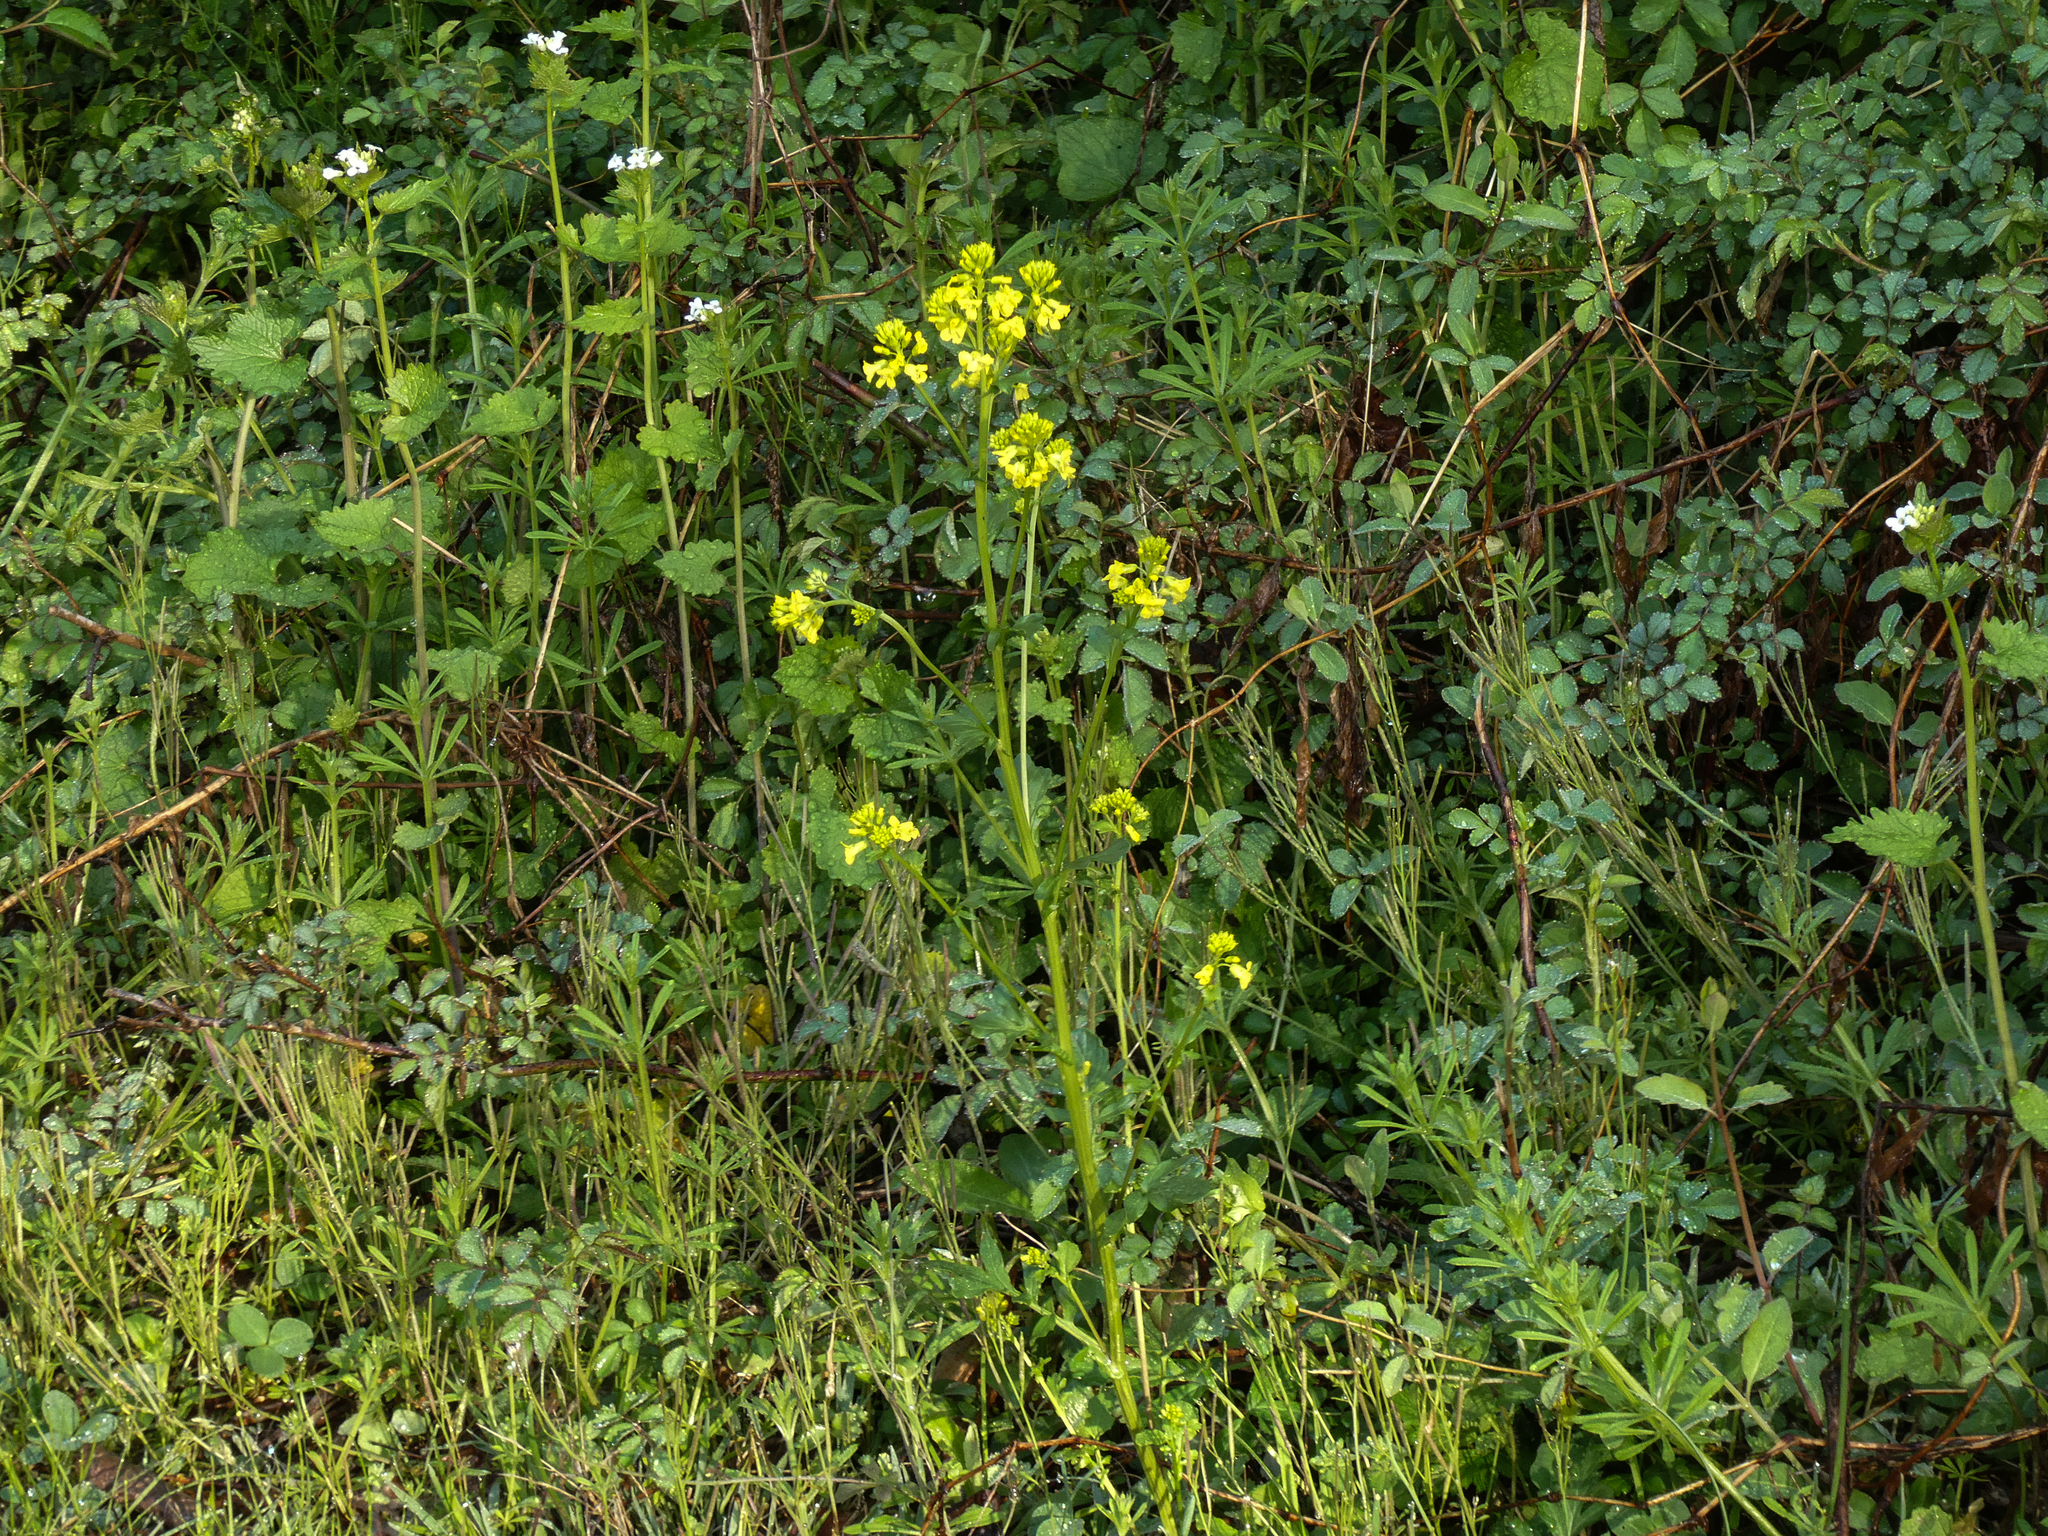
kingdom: Plantae
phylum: Tracheophyta
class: Magnoliopsida
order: Brassicales
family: Brassicaceae
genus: Barbarea
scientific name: Barbarea vulgaris
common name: Cressy-greens
